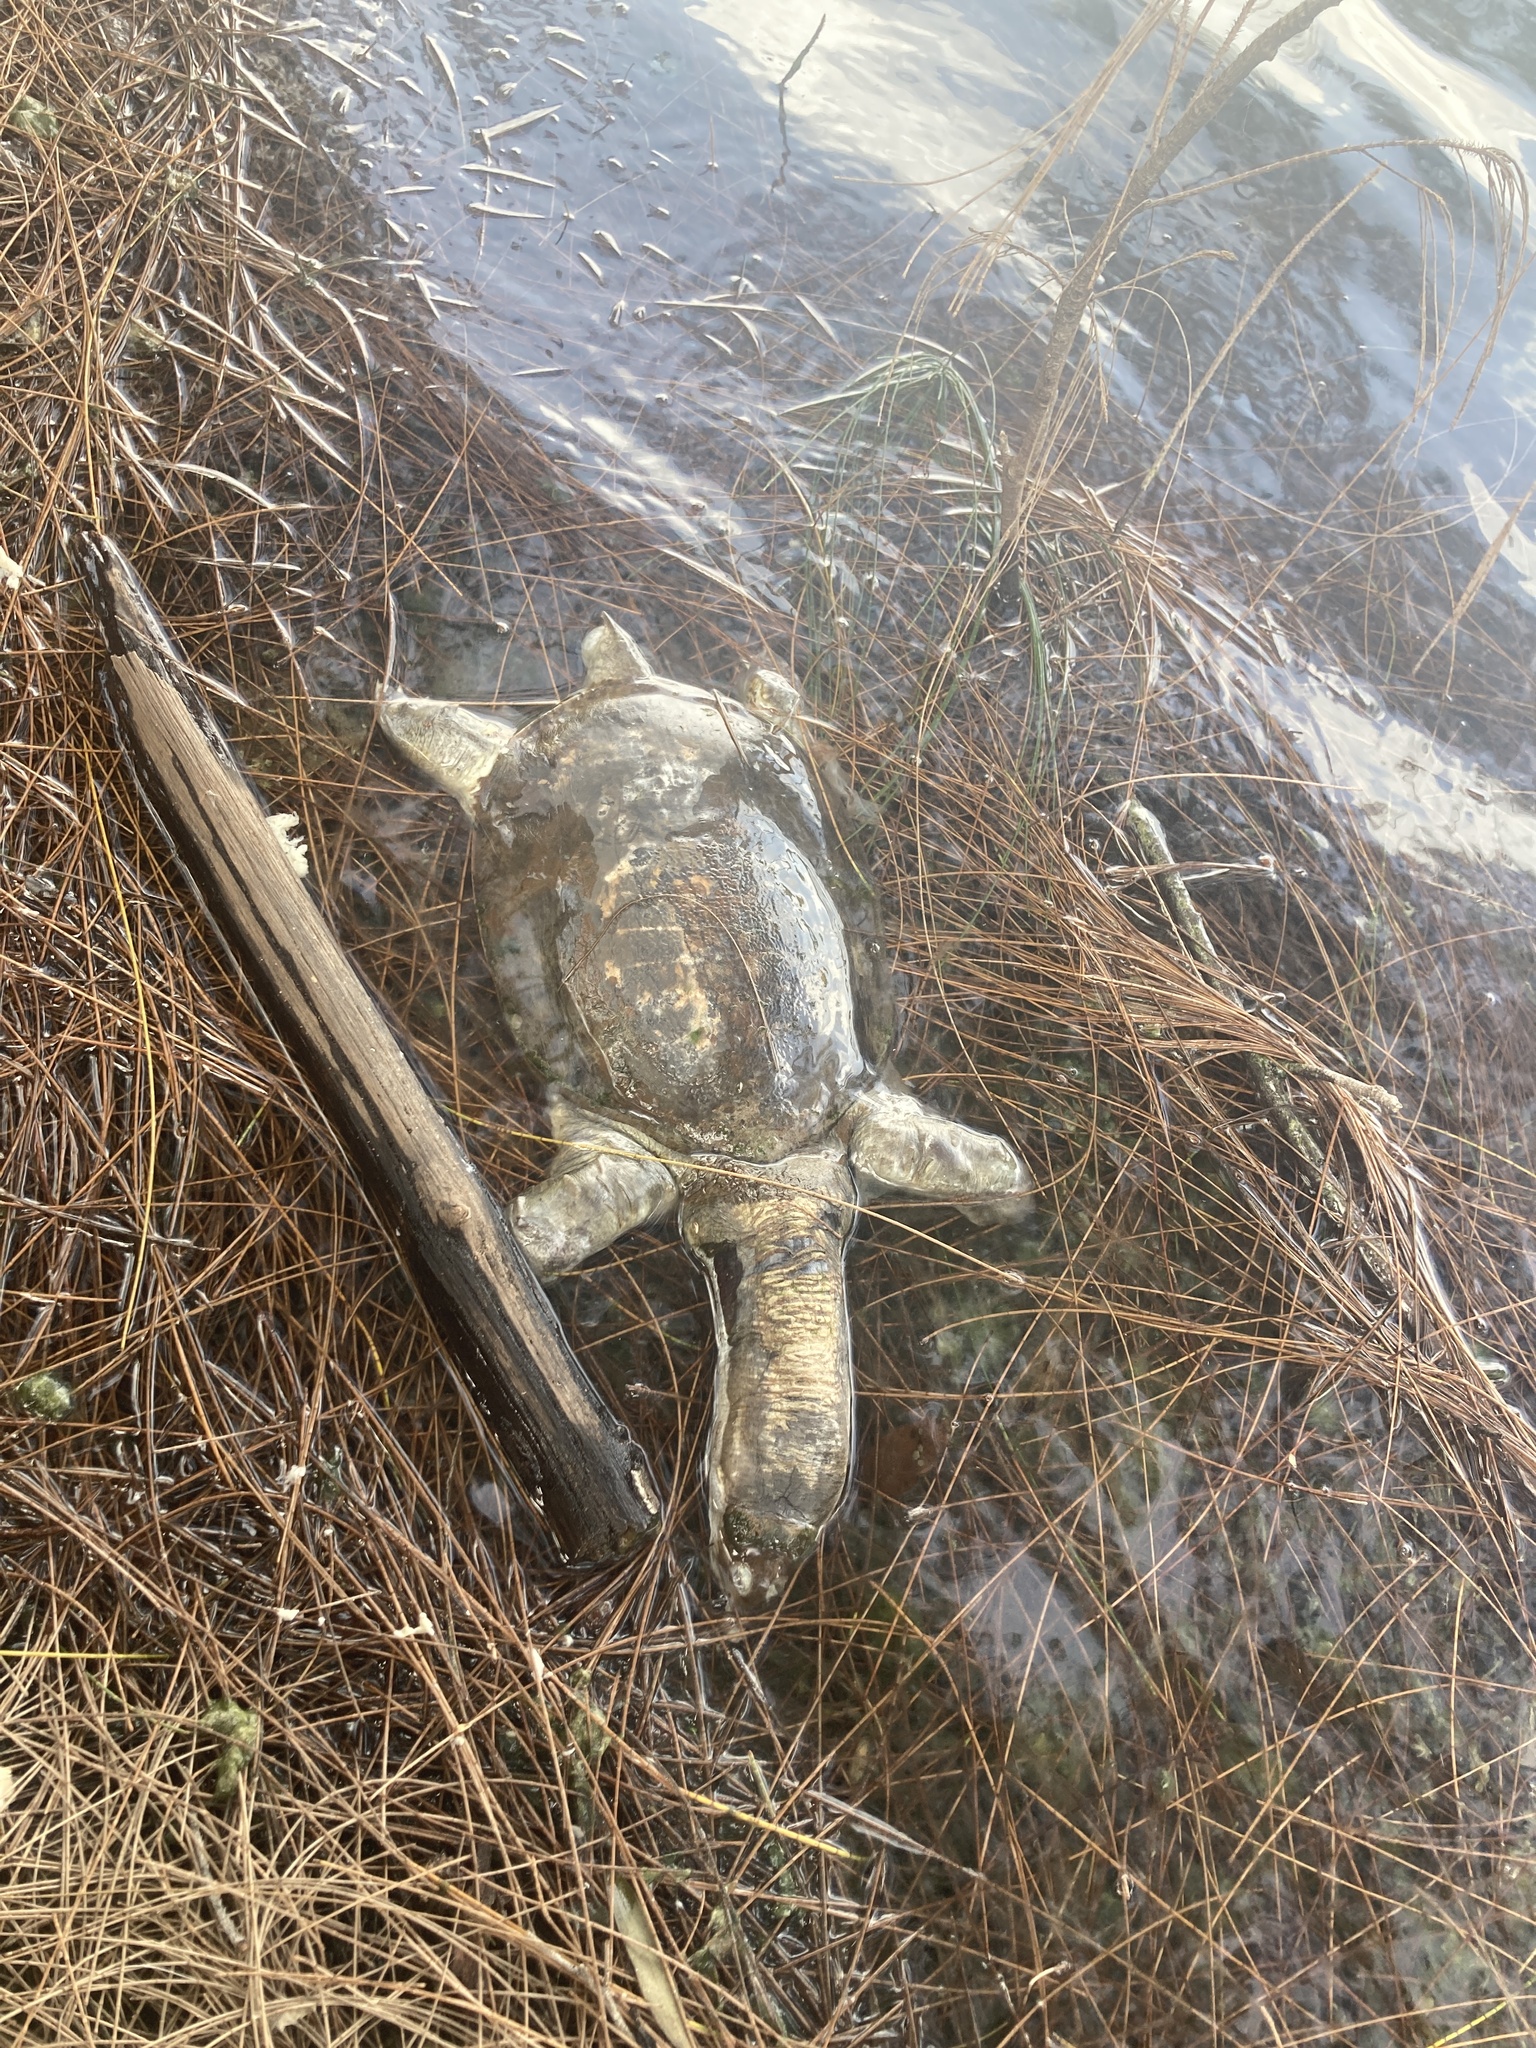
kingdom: Animalia
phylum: Chordata
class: Testudines
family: Trionychidae
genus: Apalone
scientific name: Apalone ferox
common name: Florida softshell turtle
